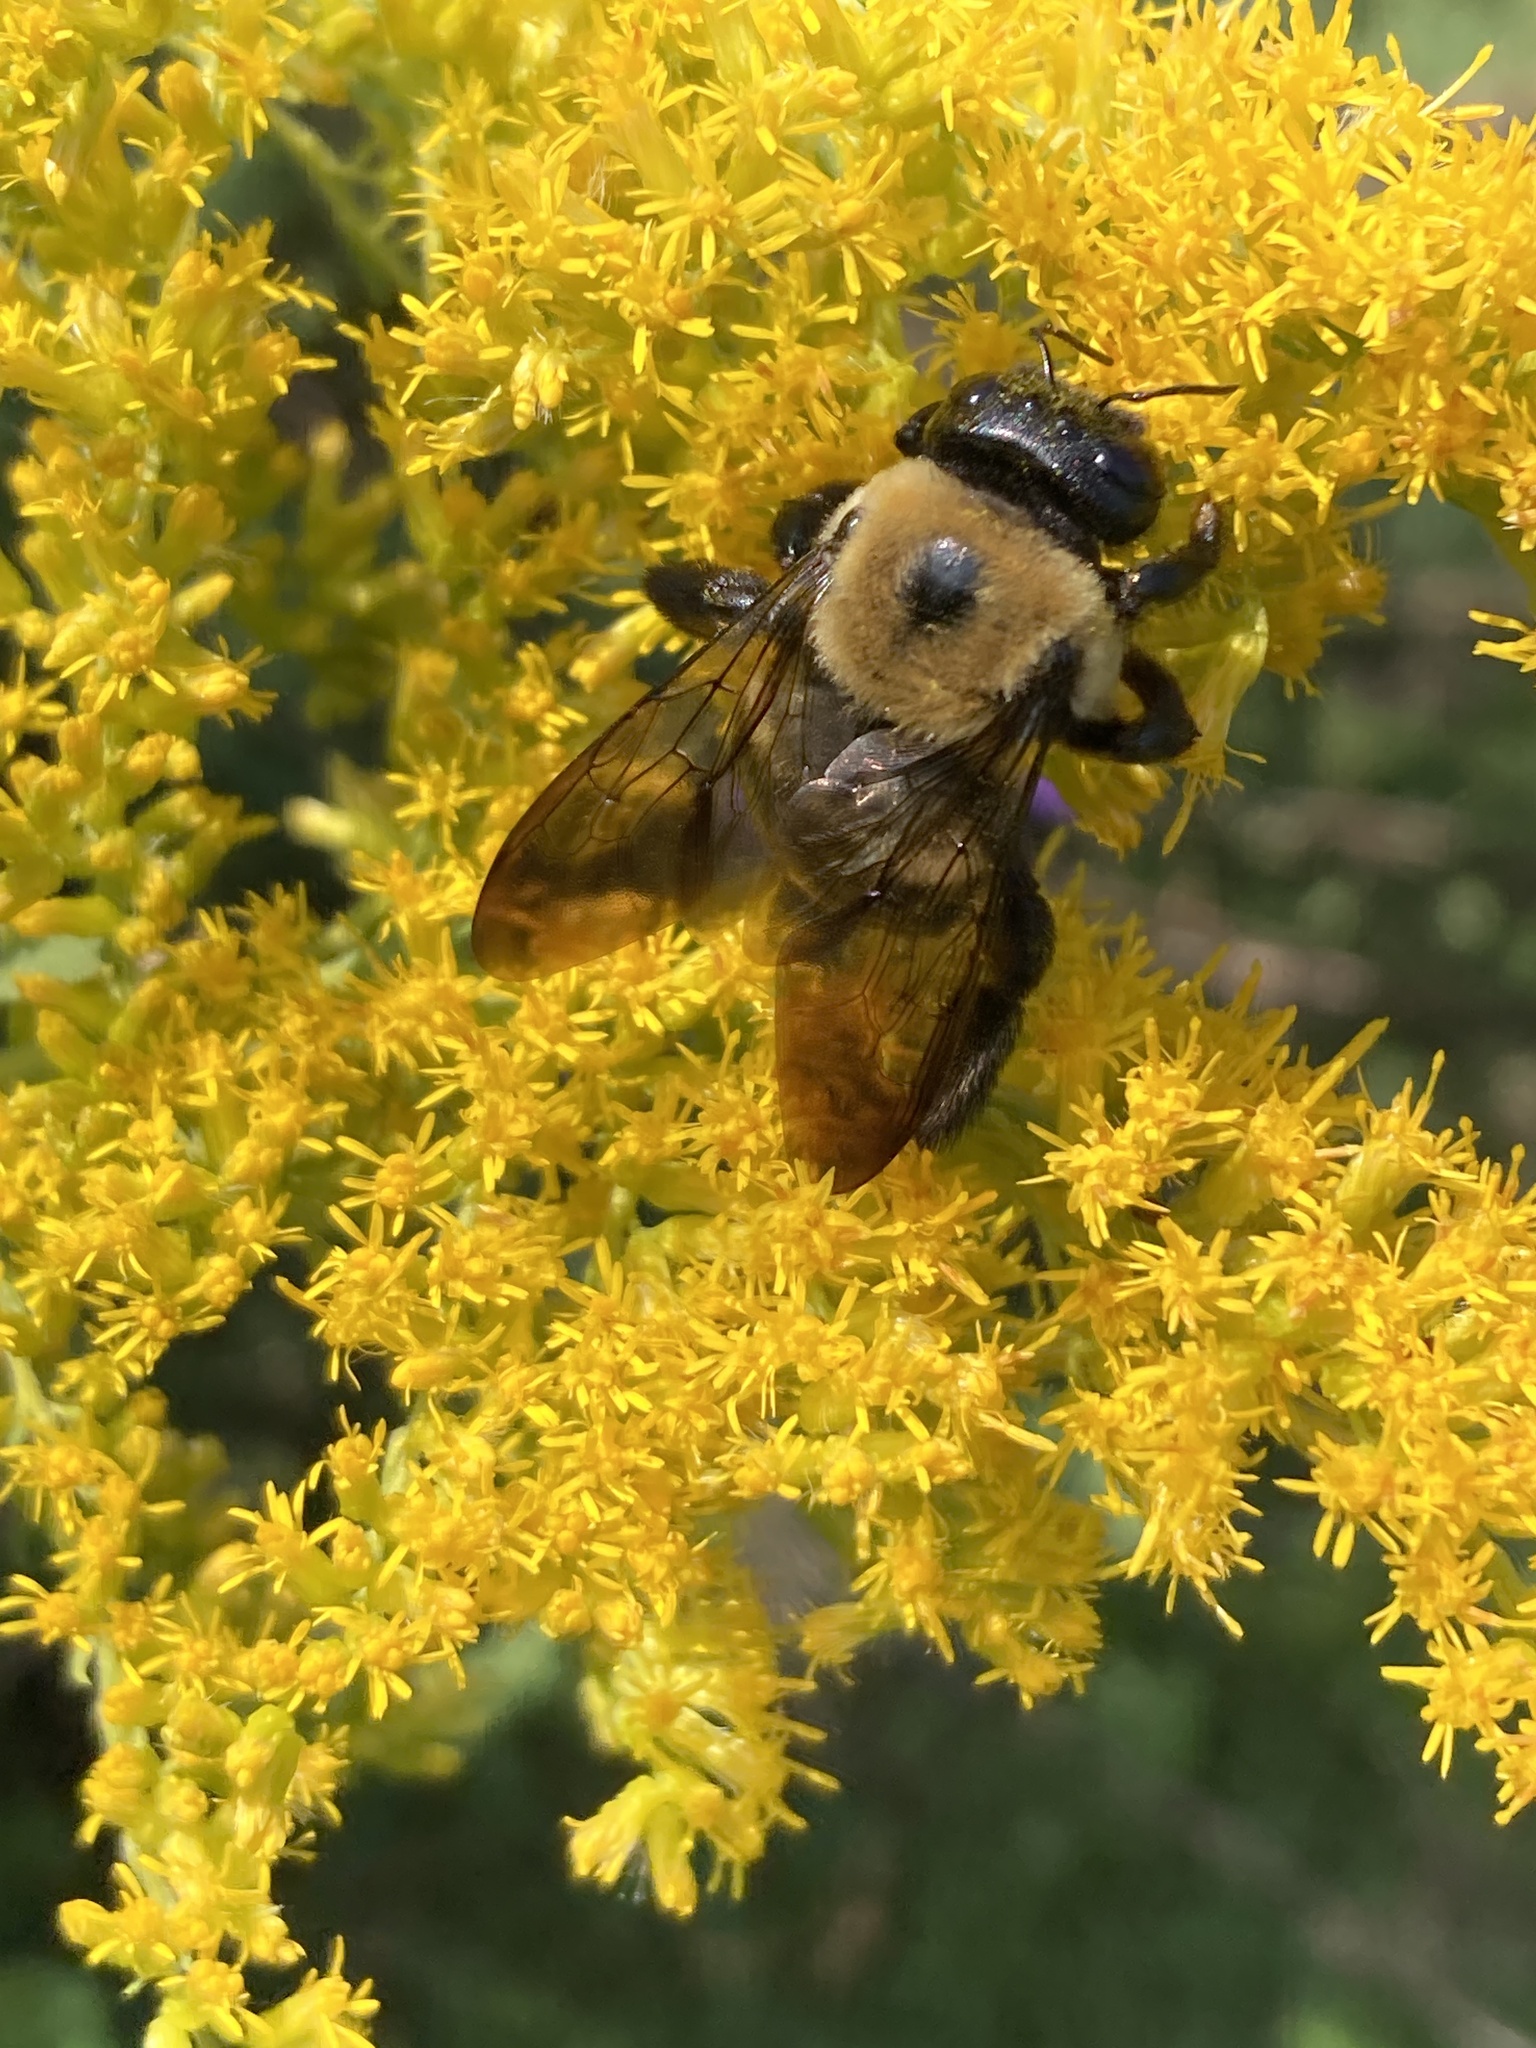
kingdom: Animalia
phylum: Arthropoda
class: Insecta
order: Hymenoptera
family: Apidae
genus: Xylocopa
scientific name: Xylocopa virginica
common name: Carpenter bee
